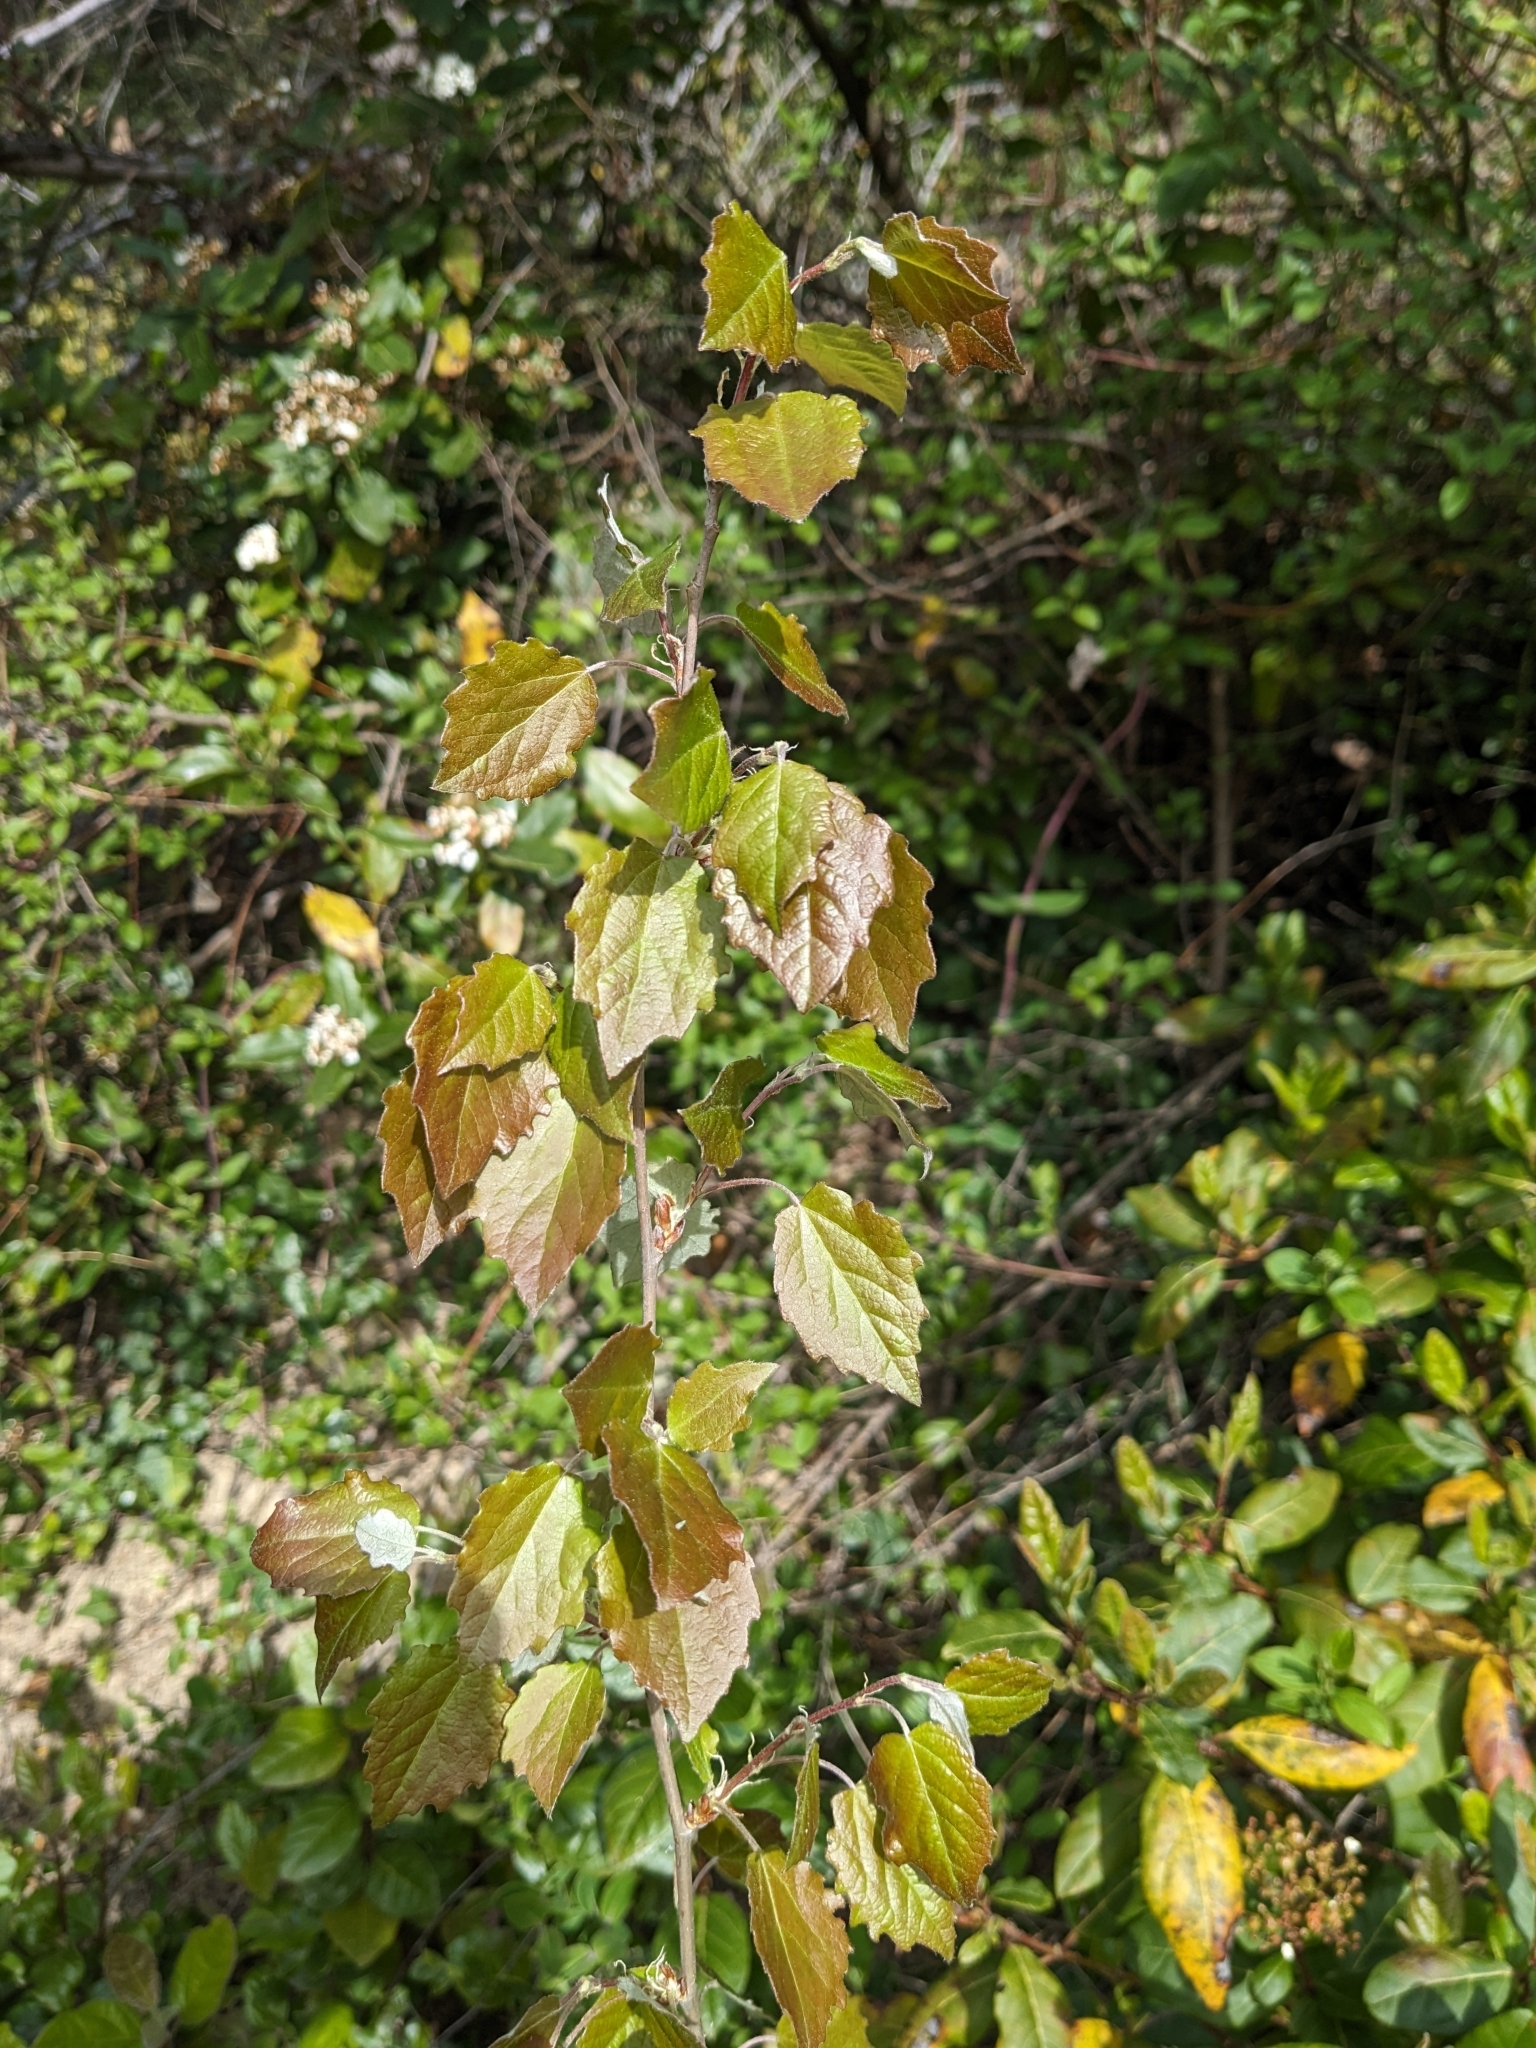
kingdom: Plantae
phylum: Tracheophyta
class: Magnoliopsida
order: Malpighiales
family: Salicaceae
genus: Populus
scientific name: Populus alba
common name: White poplar
